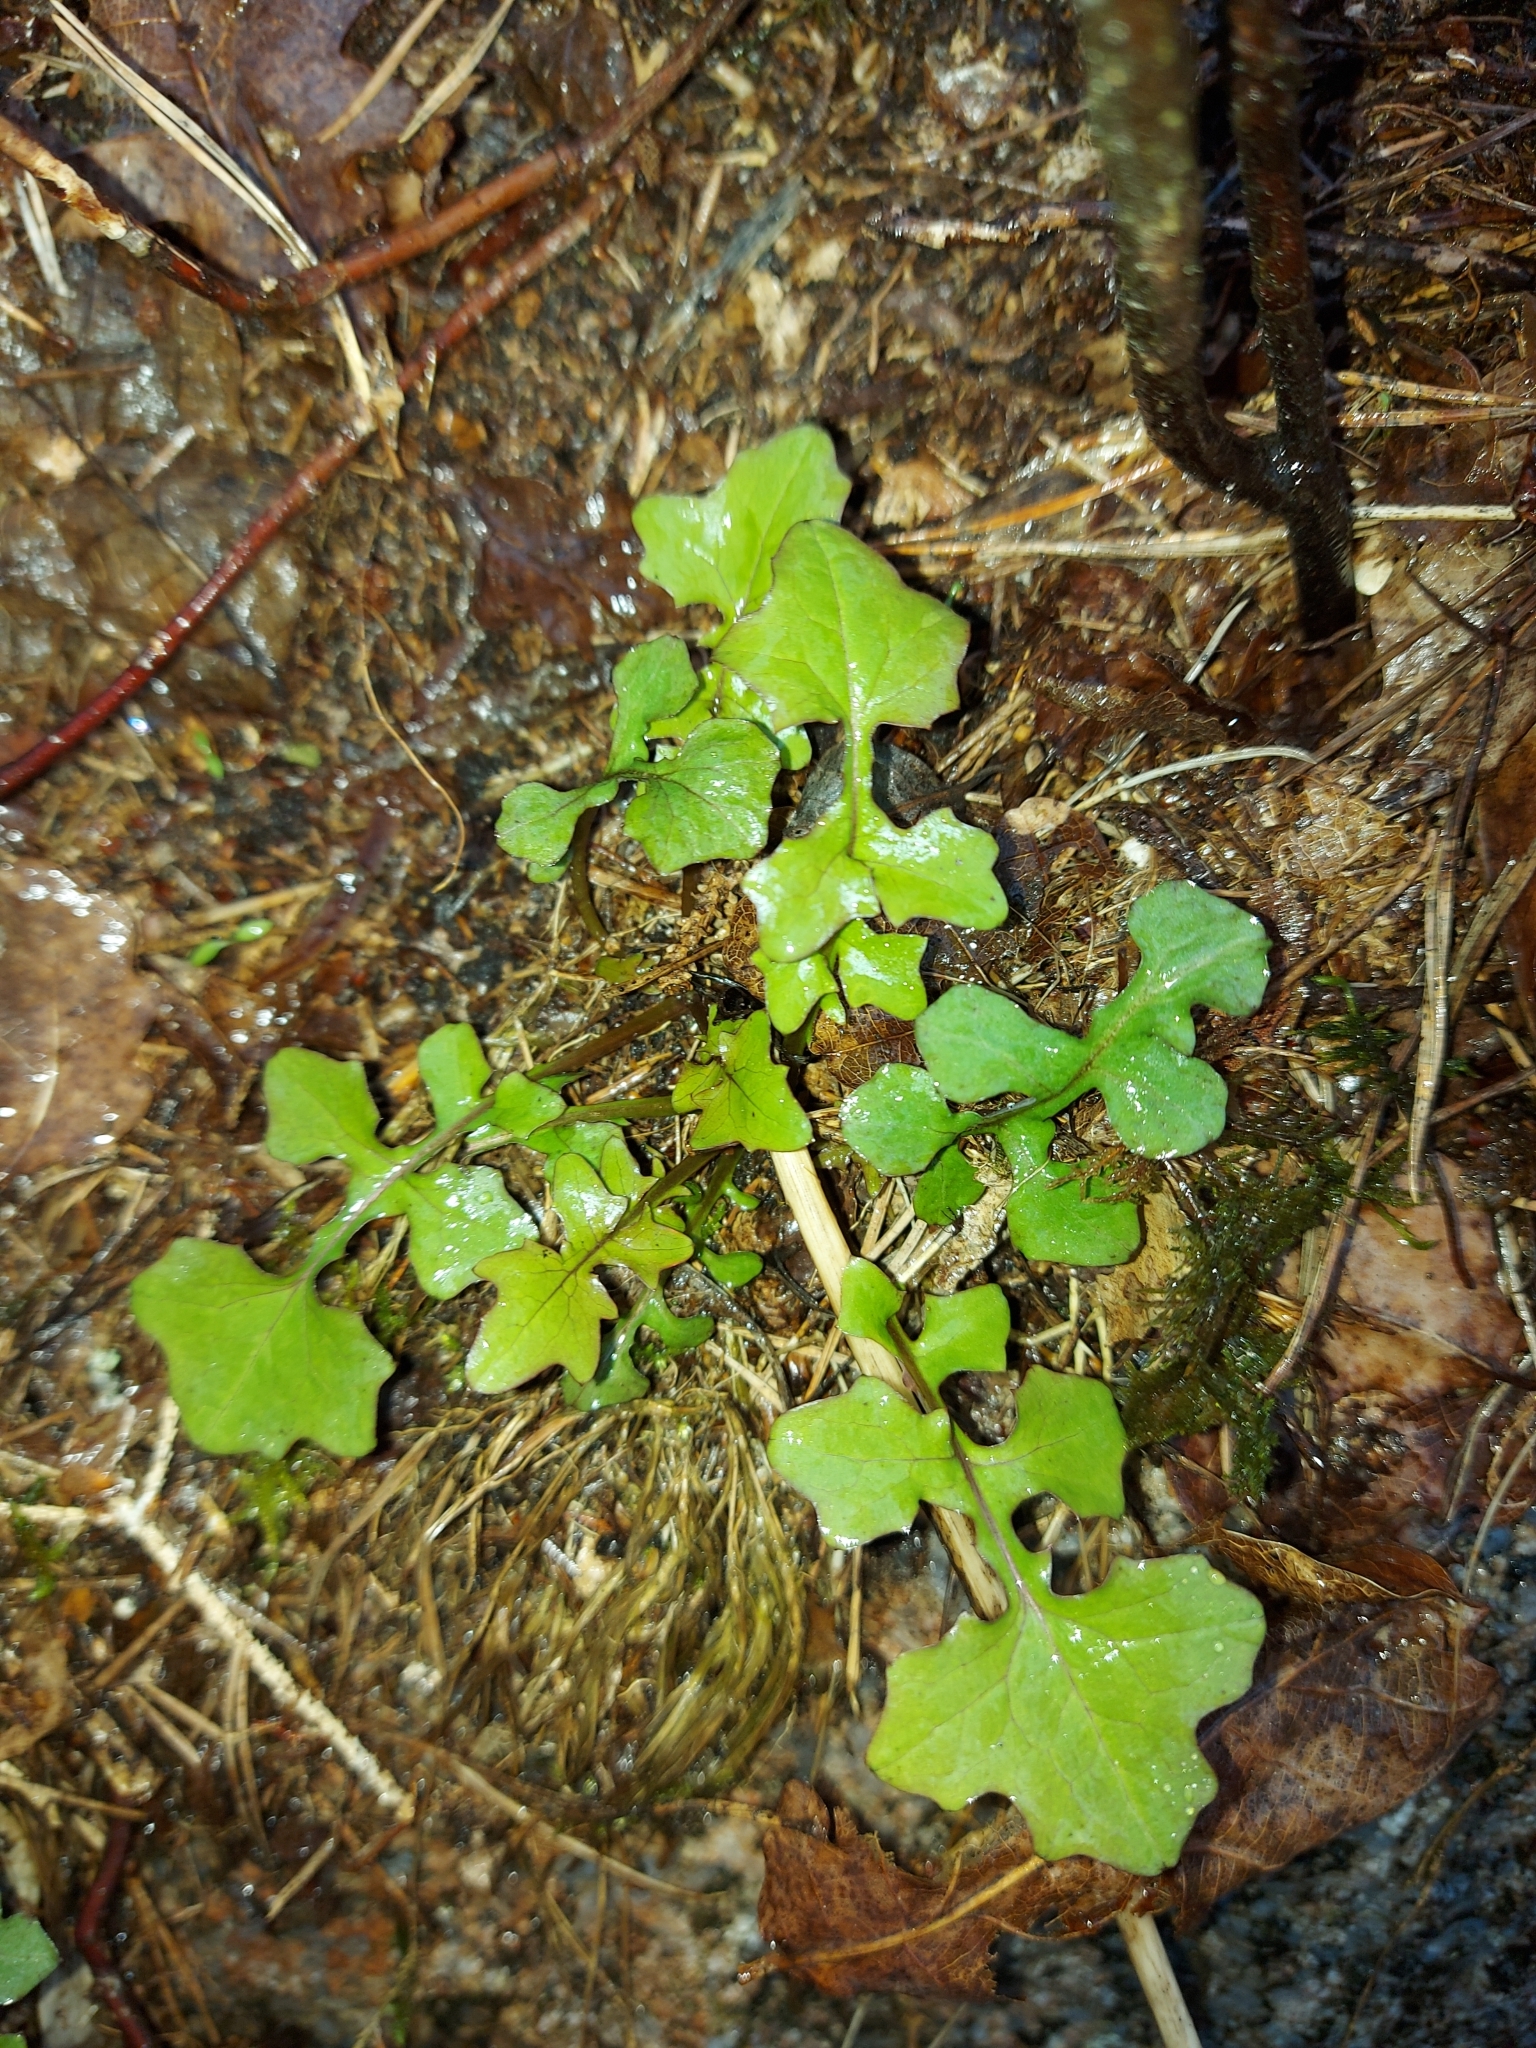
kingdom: Plantae
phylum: Tracheophyta
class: Magnoliopsida
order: Asterales
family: Asteraceae
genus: Mycelis
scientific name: Mycelis muralis
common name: Wall lettuce
